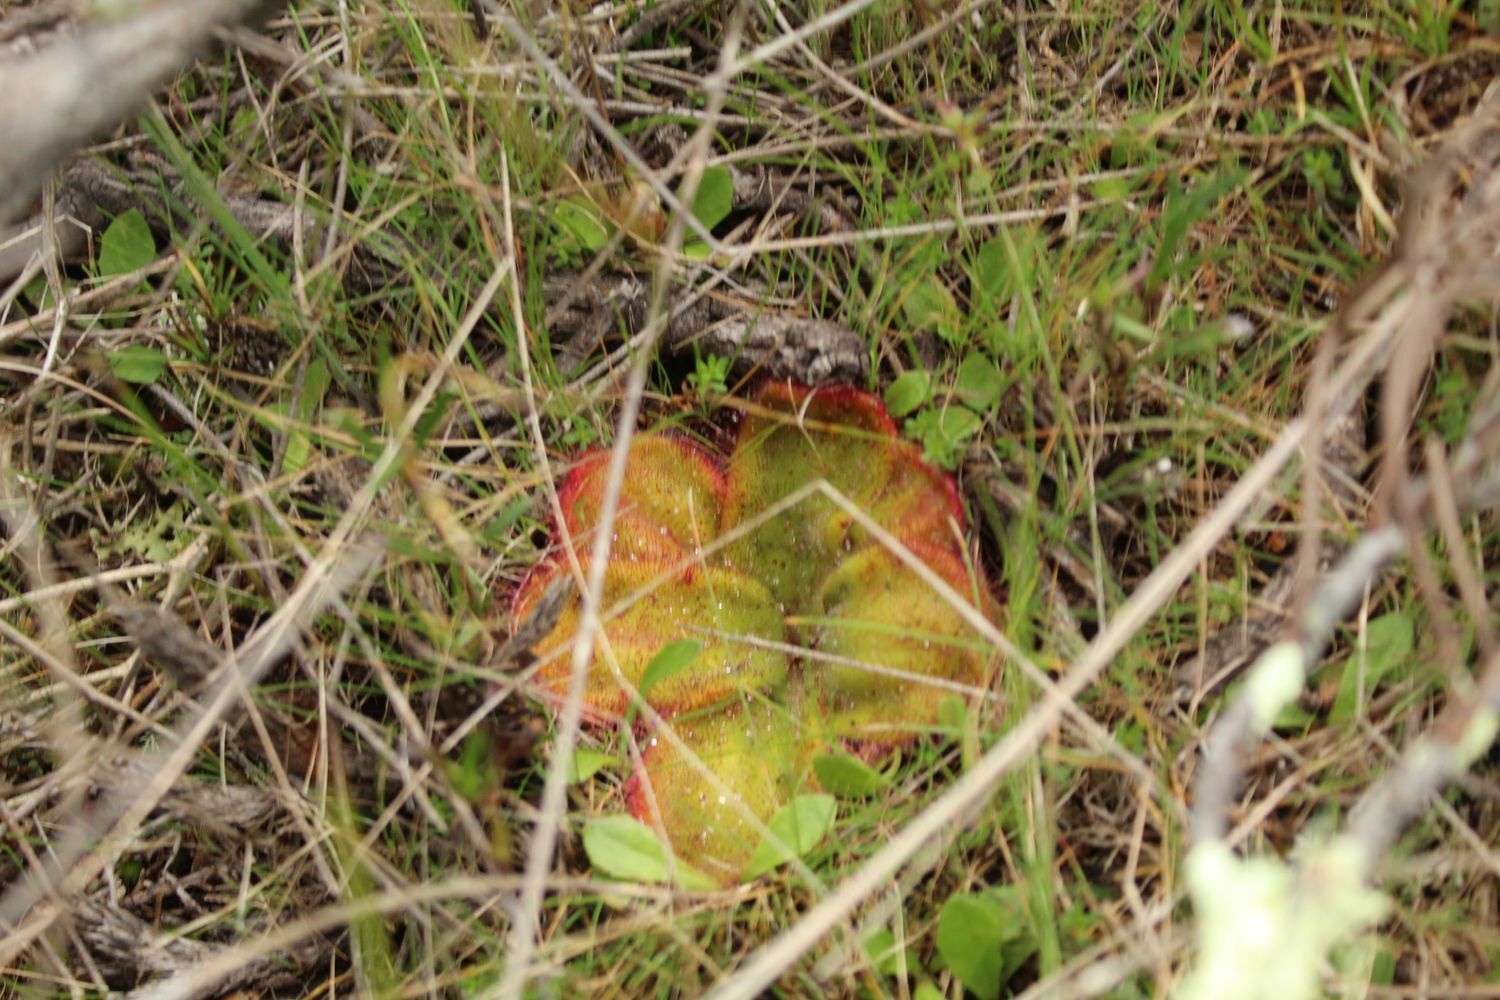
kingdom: Plantae
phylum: Tracheophyta
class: Magnoliopsida
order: Caryophyllales
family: Droseraceae
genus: Drosera
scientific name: Drosera erythrorhiza
